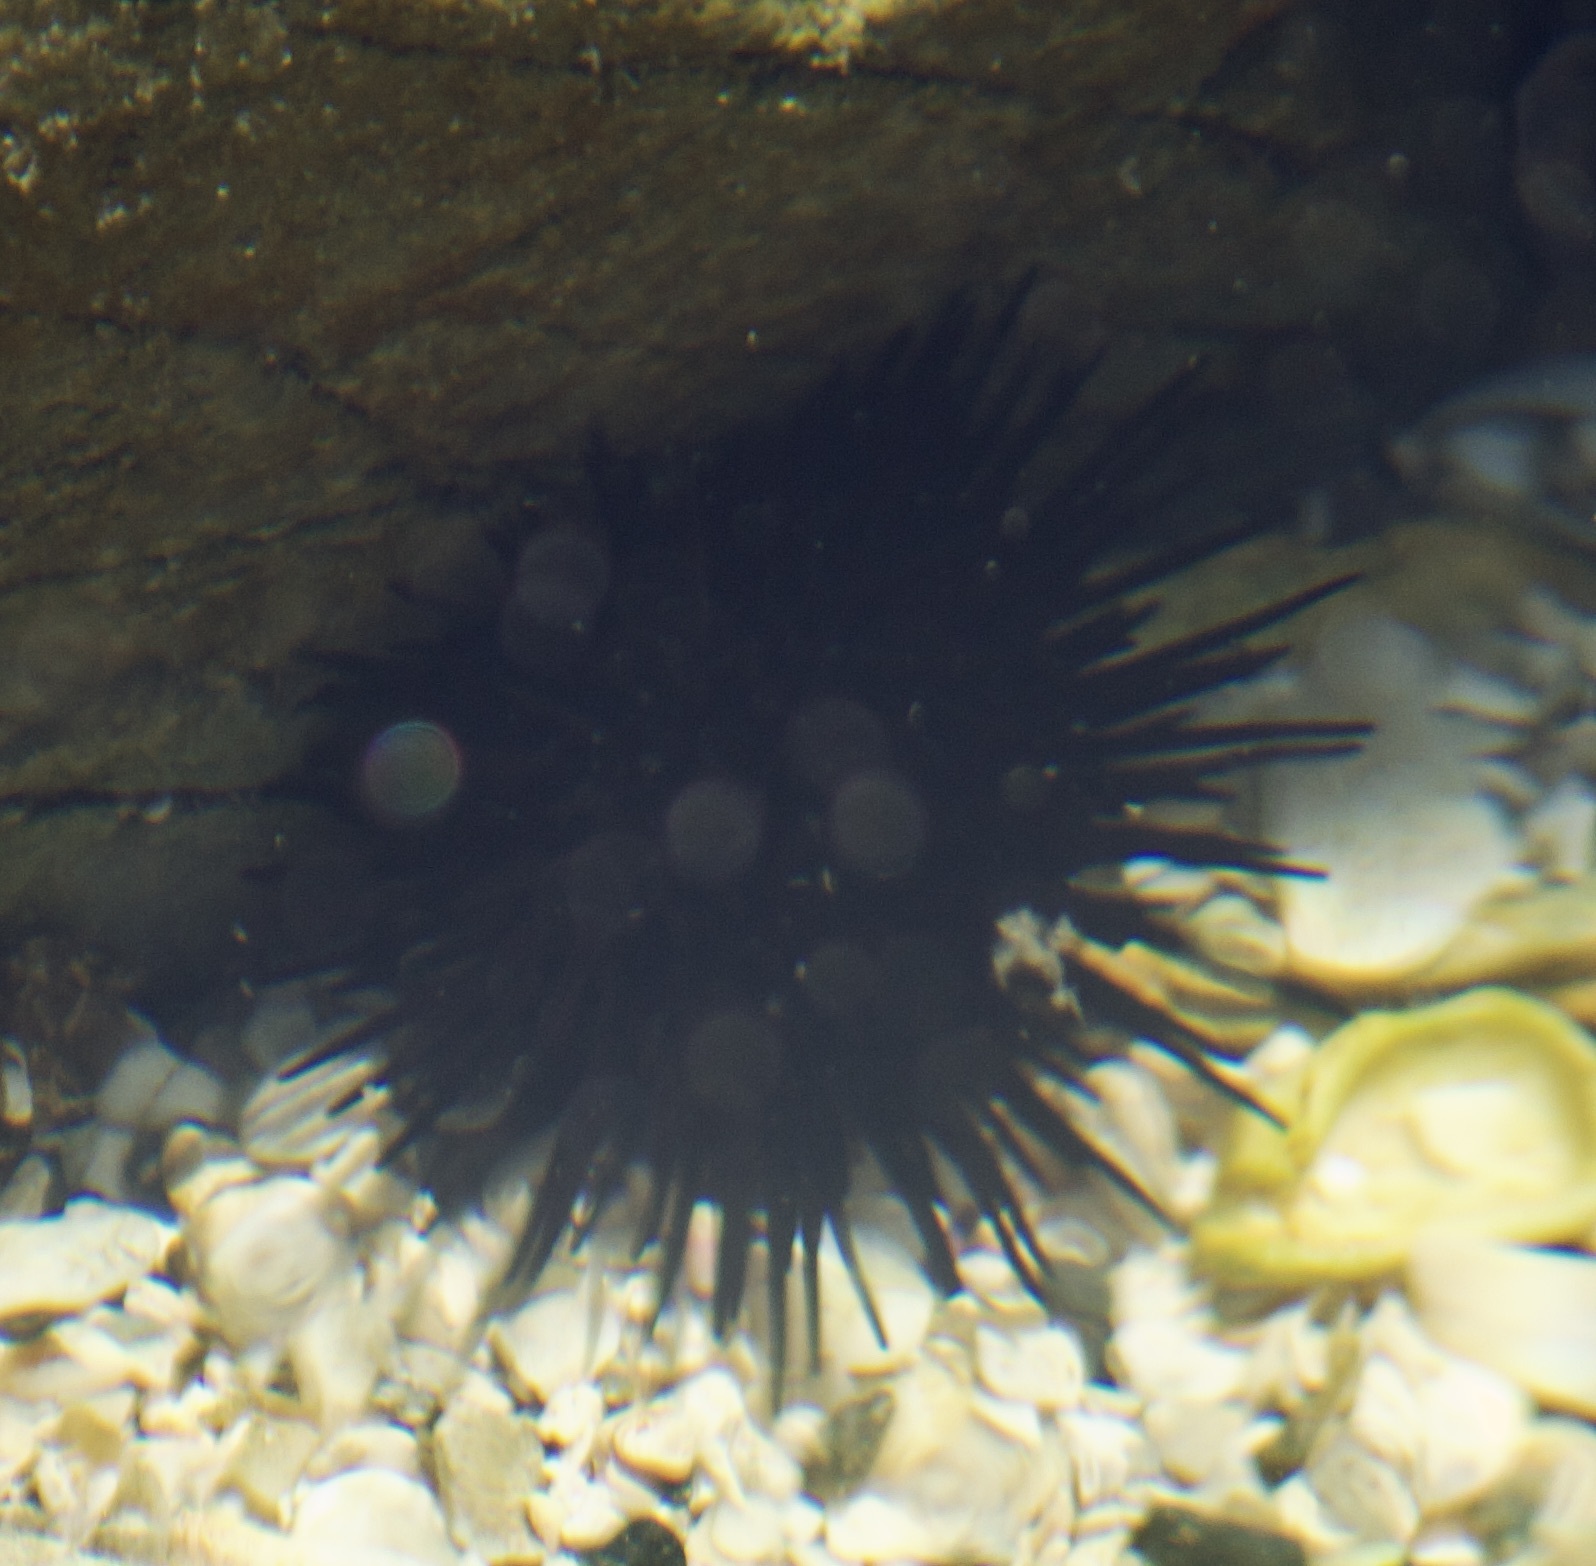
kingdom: Animalia
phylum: Echinodermata
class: Echinoidea
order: Arbacioida
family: Arbaciidae
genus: Tetrapygus
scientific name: Tetrapygus niger
